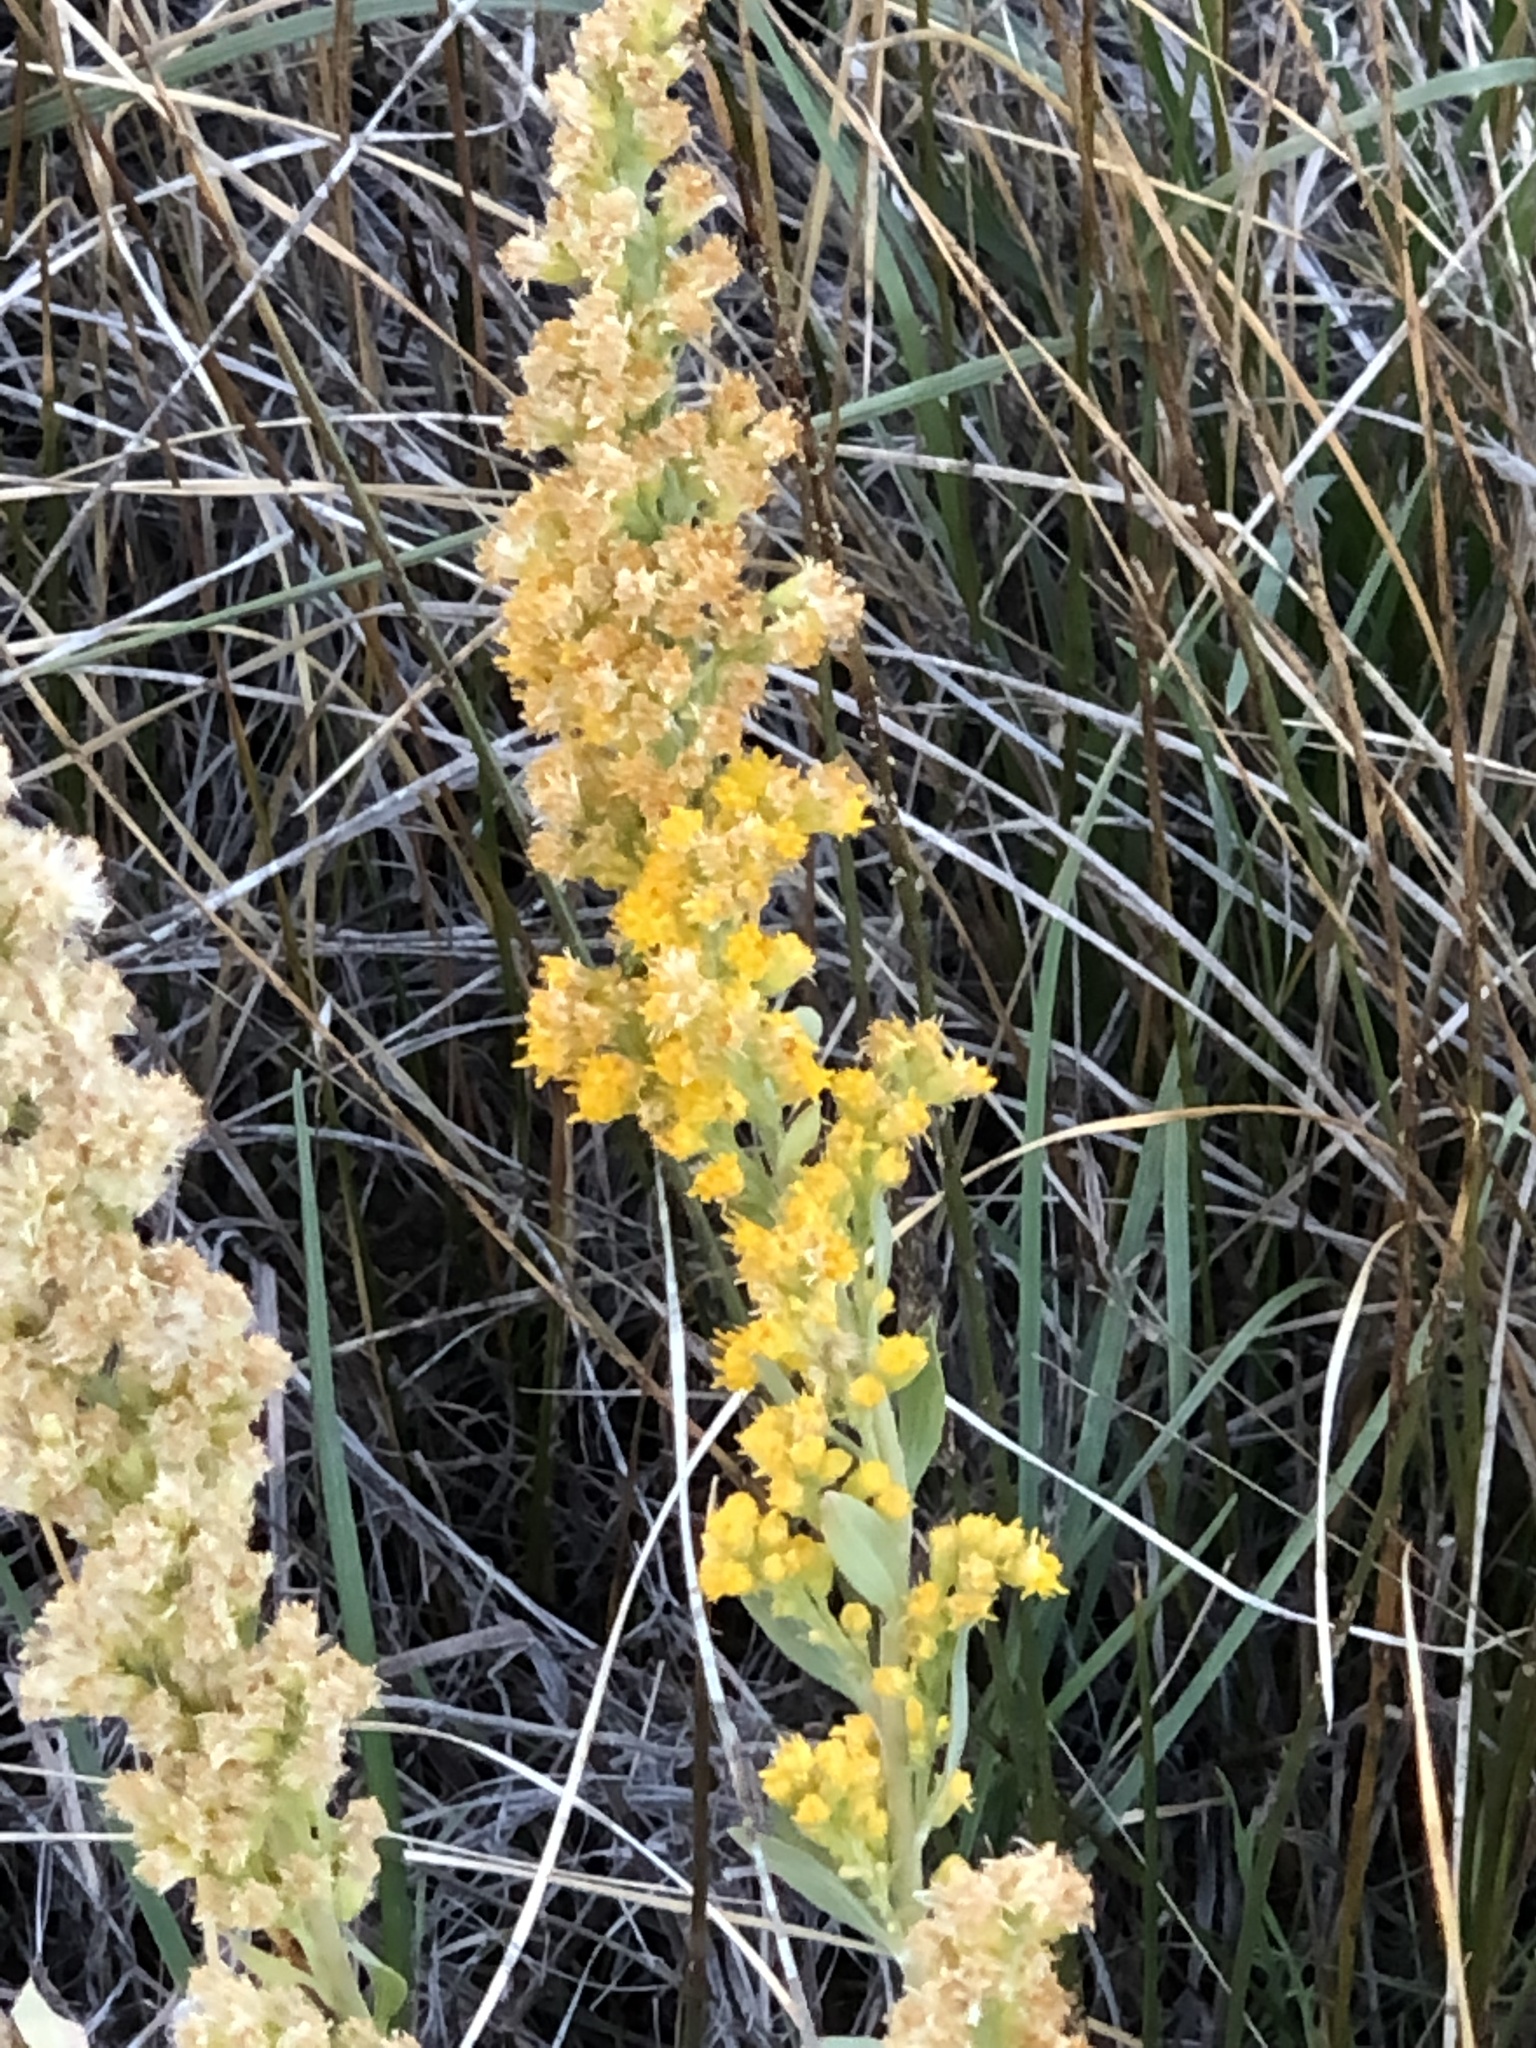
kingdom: Plantae
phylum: Tracheophyta
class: Magnoliopsida
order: Asterales
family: Asteraceae
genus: Solidago
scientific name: Solidago velutina
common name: Three-nerve goldenrod
